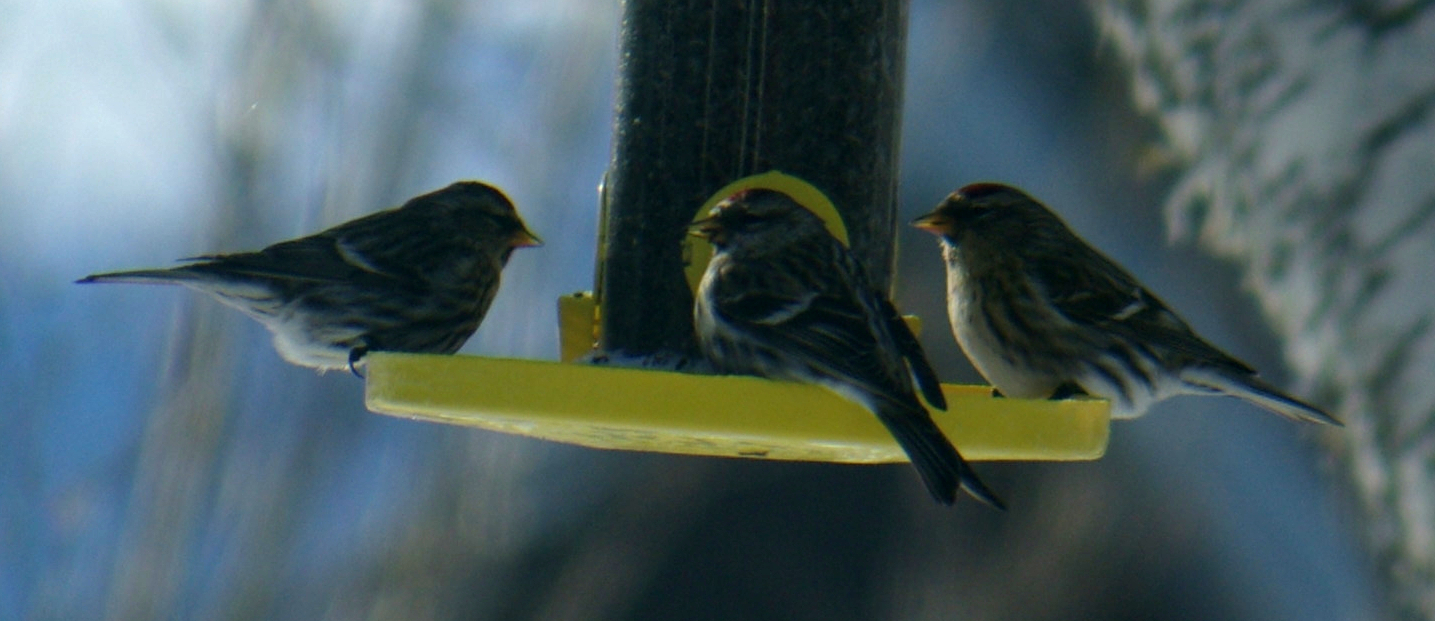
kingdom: Animalia
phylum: Chordata
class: Aves
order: Passeriformes
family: Fringillidae
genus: Acanthis
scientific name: Acanthis flammea
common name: Common redpoll
